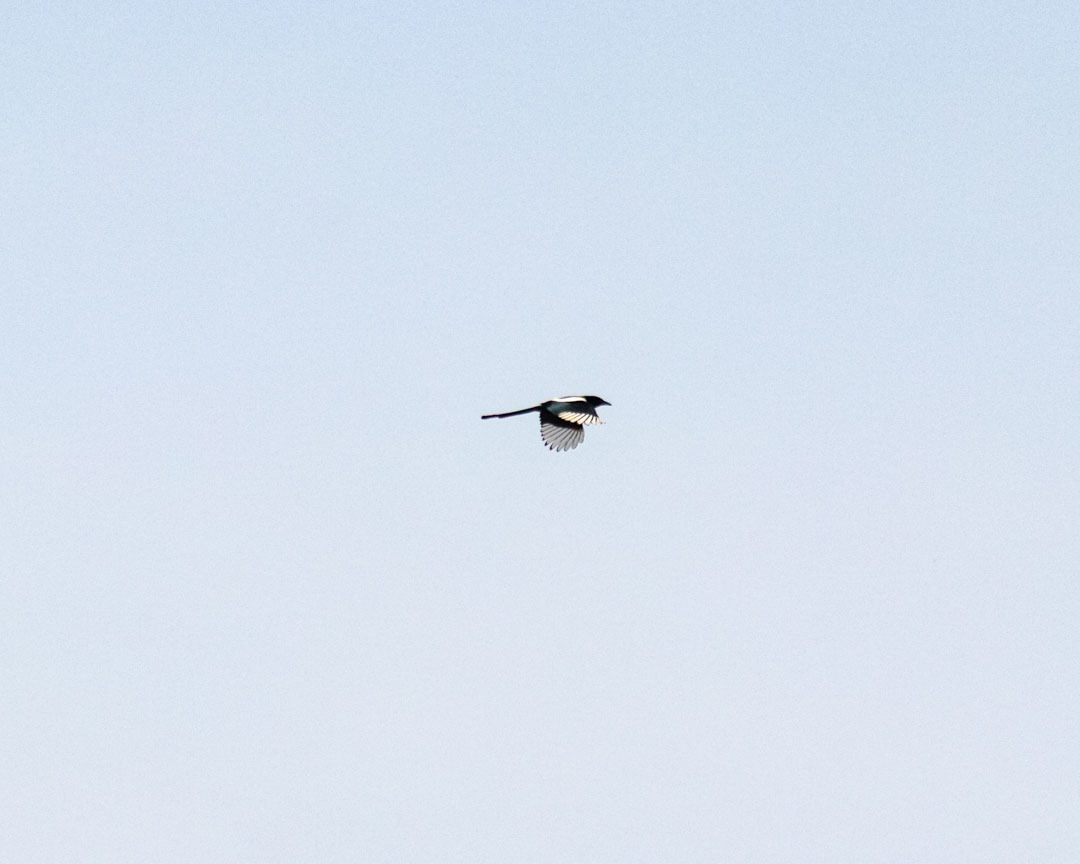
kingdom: Animalia
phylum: Chordata
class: Aves
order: Passeriformes
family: Corvidae
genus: Pica
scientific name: Pica pica
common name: Eurasian magpie
